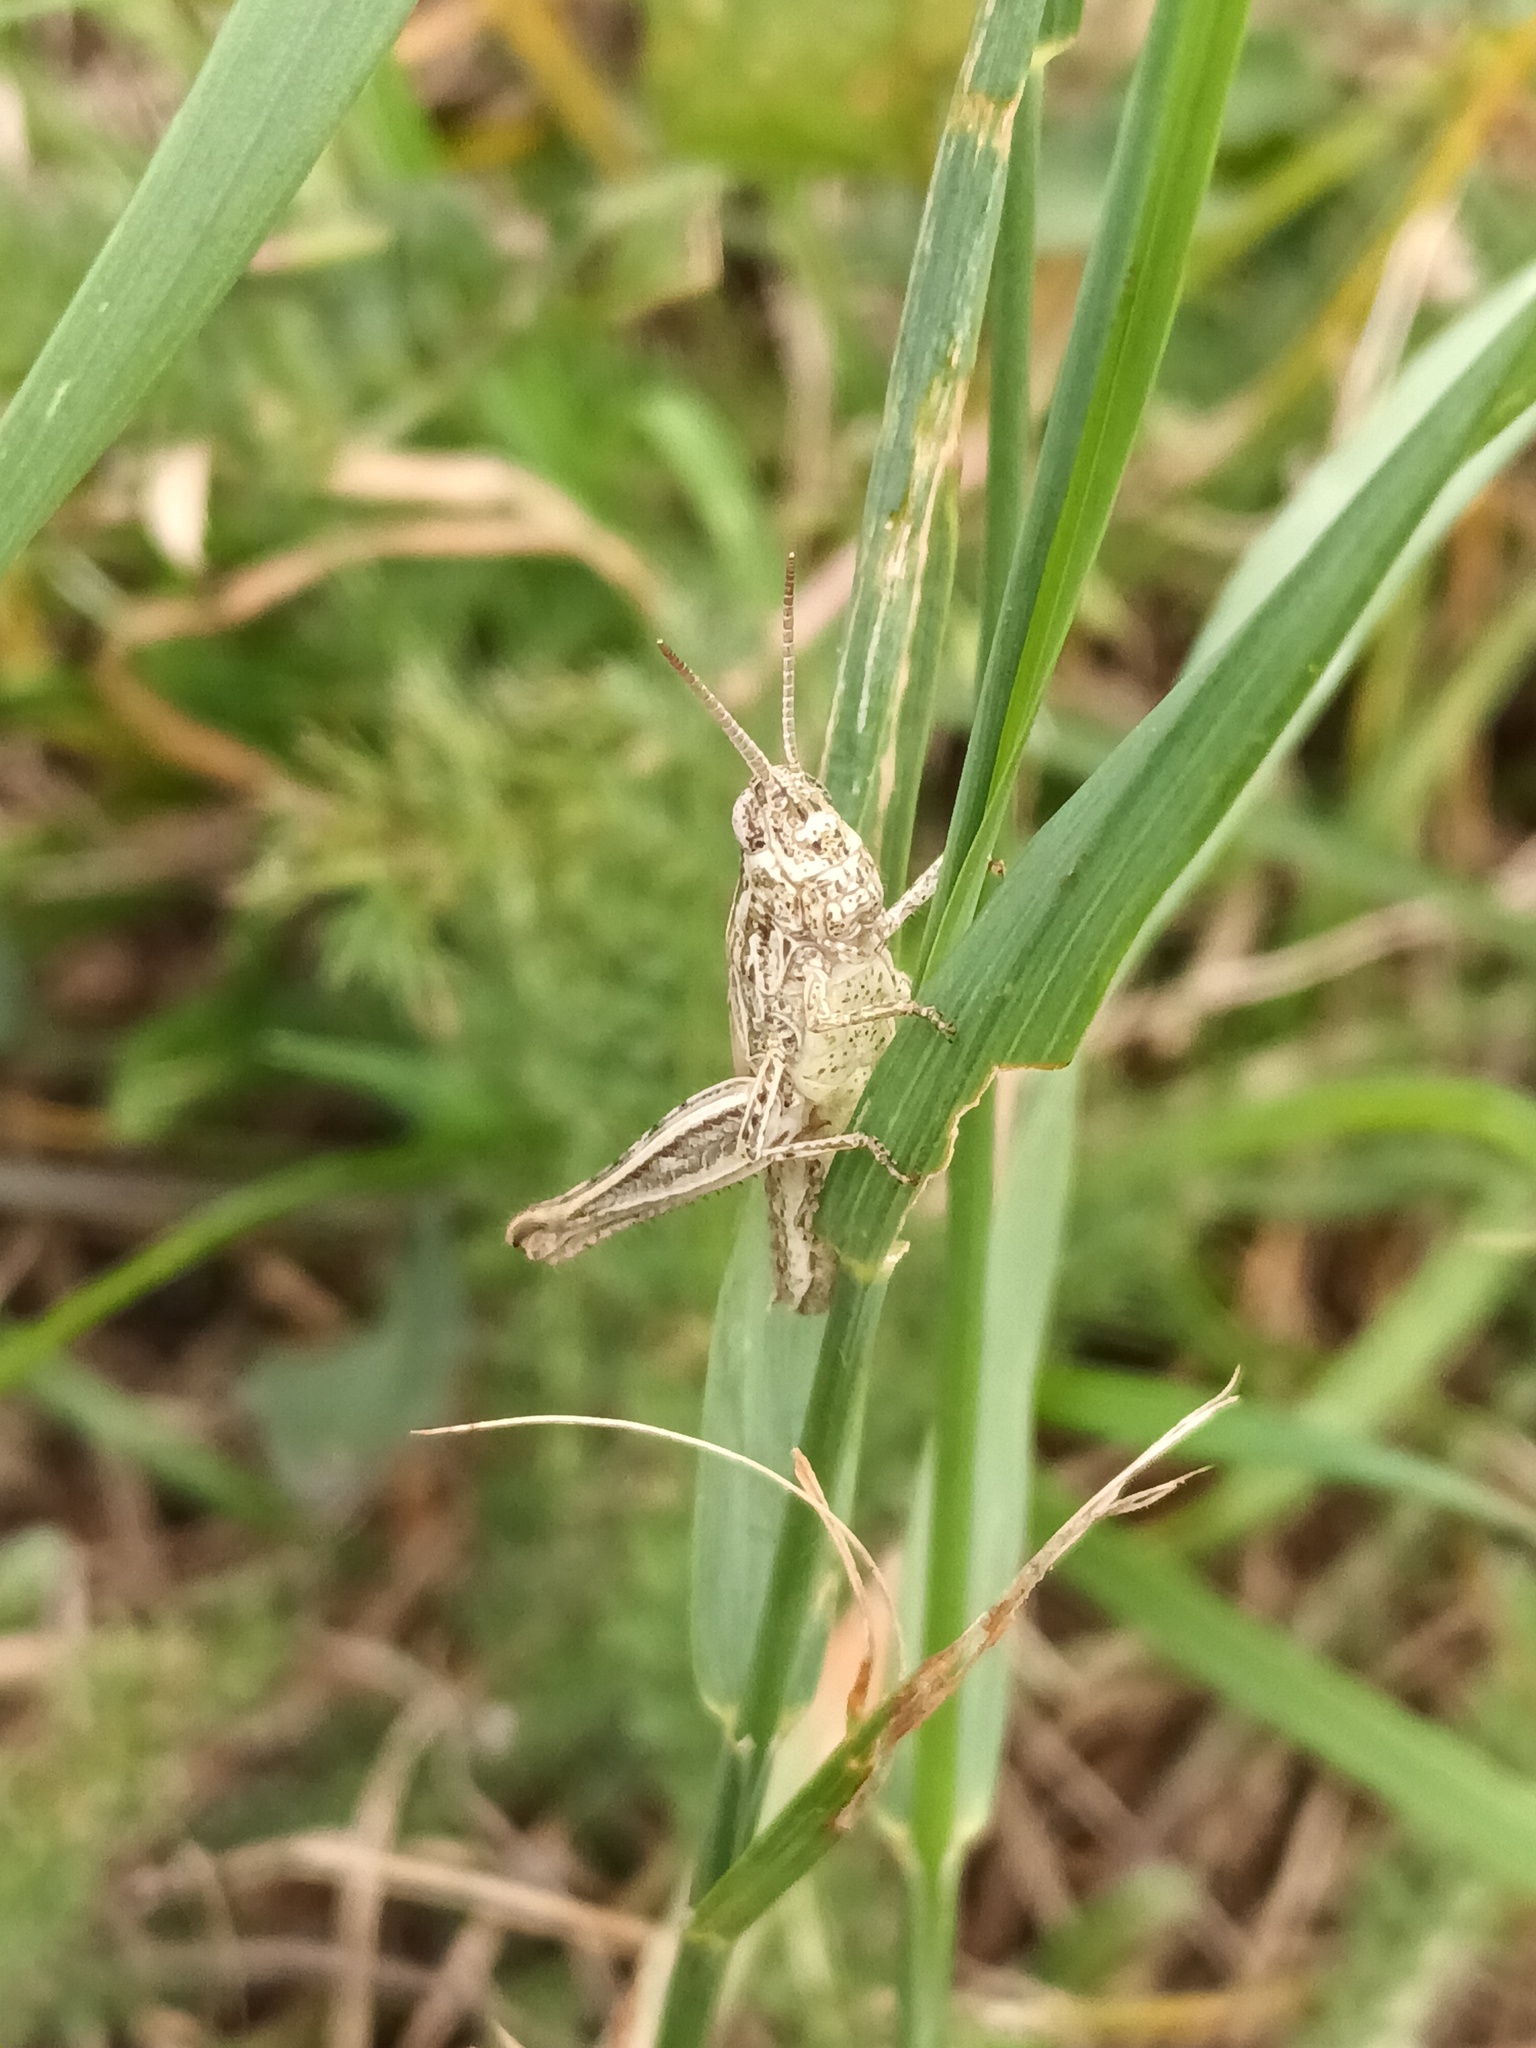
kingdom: Animalia
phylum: Arthropoda
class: Insecta
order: Orthoptera
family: Acrididae
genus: Chorthippus
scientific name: Chorthippus brunneus
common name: Field grasshopper
